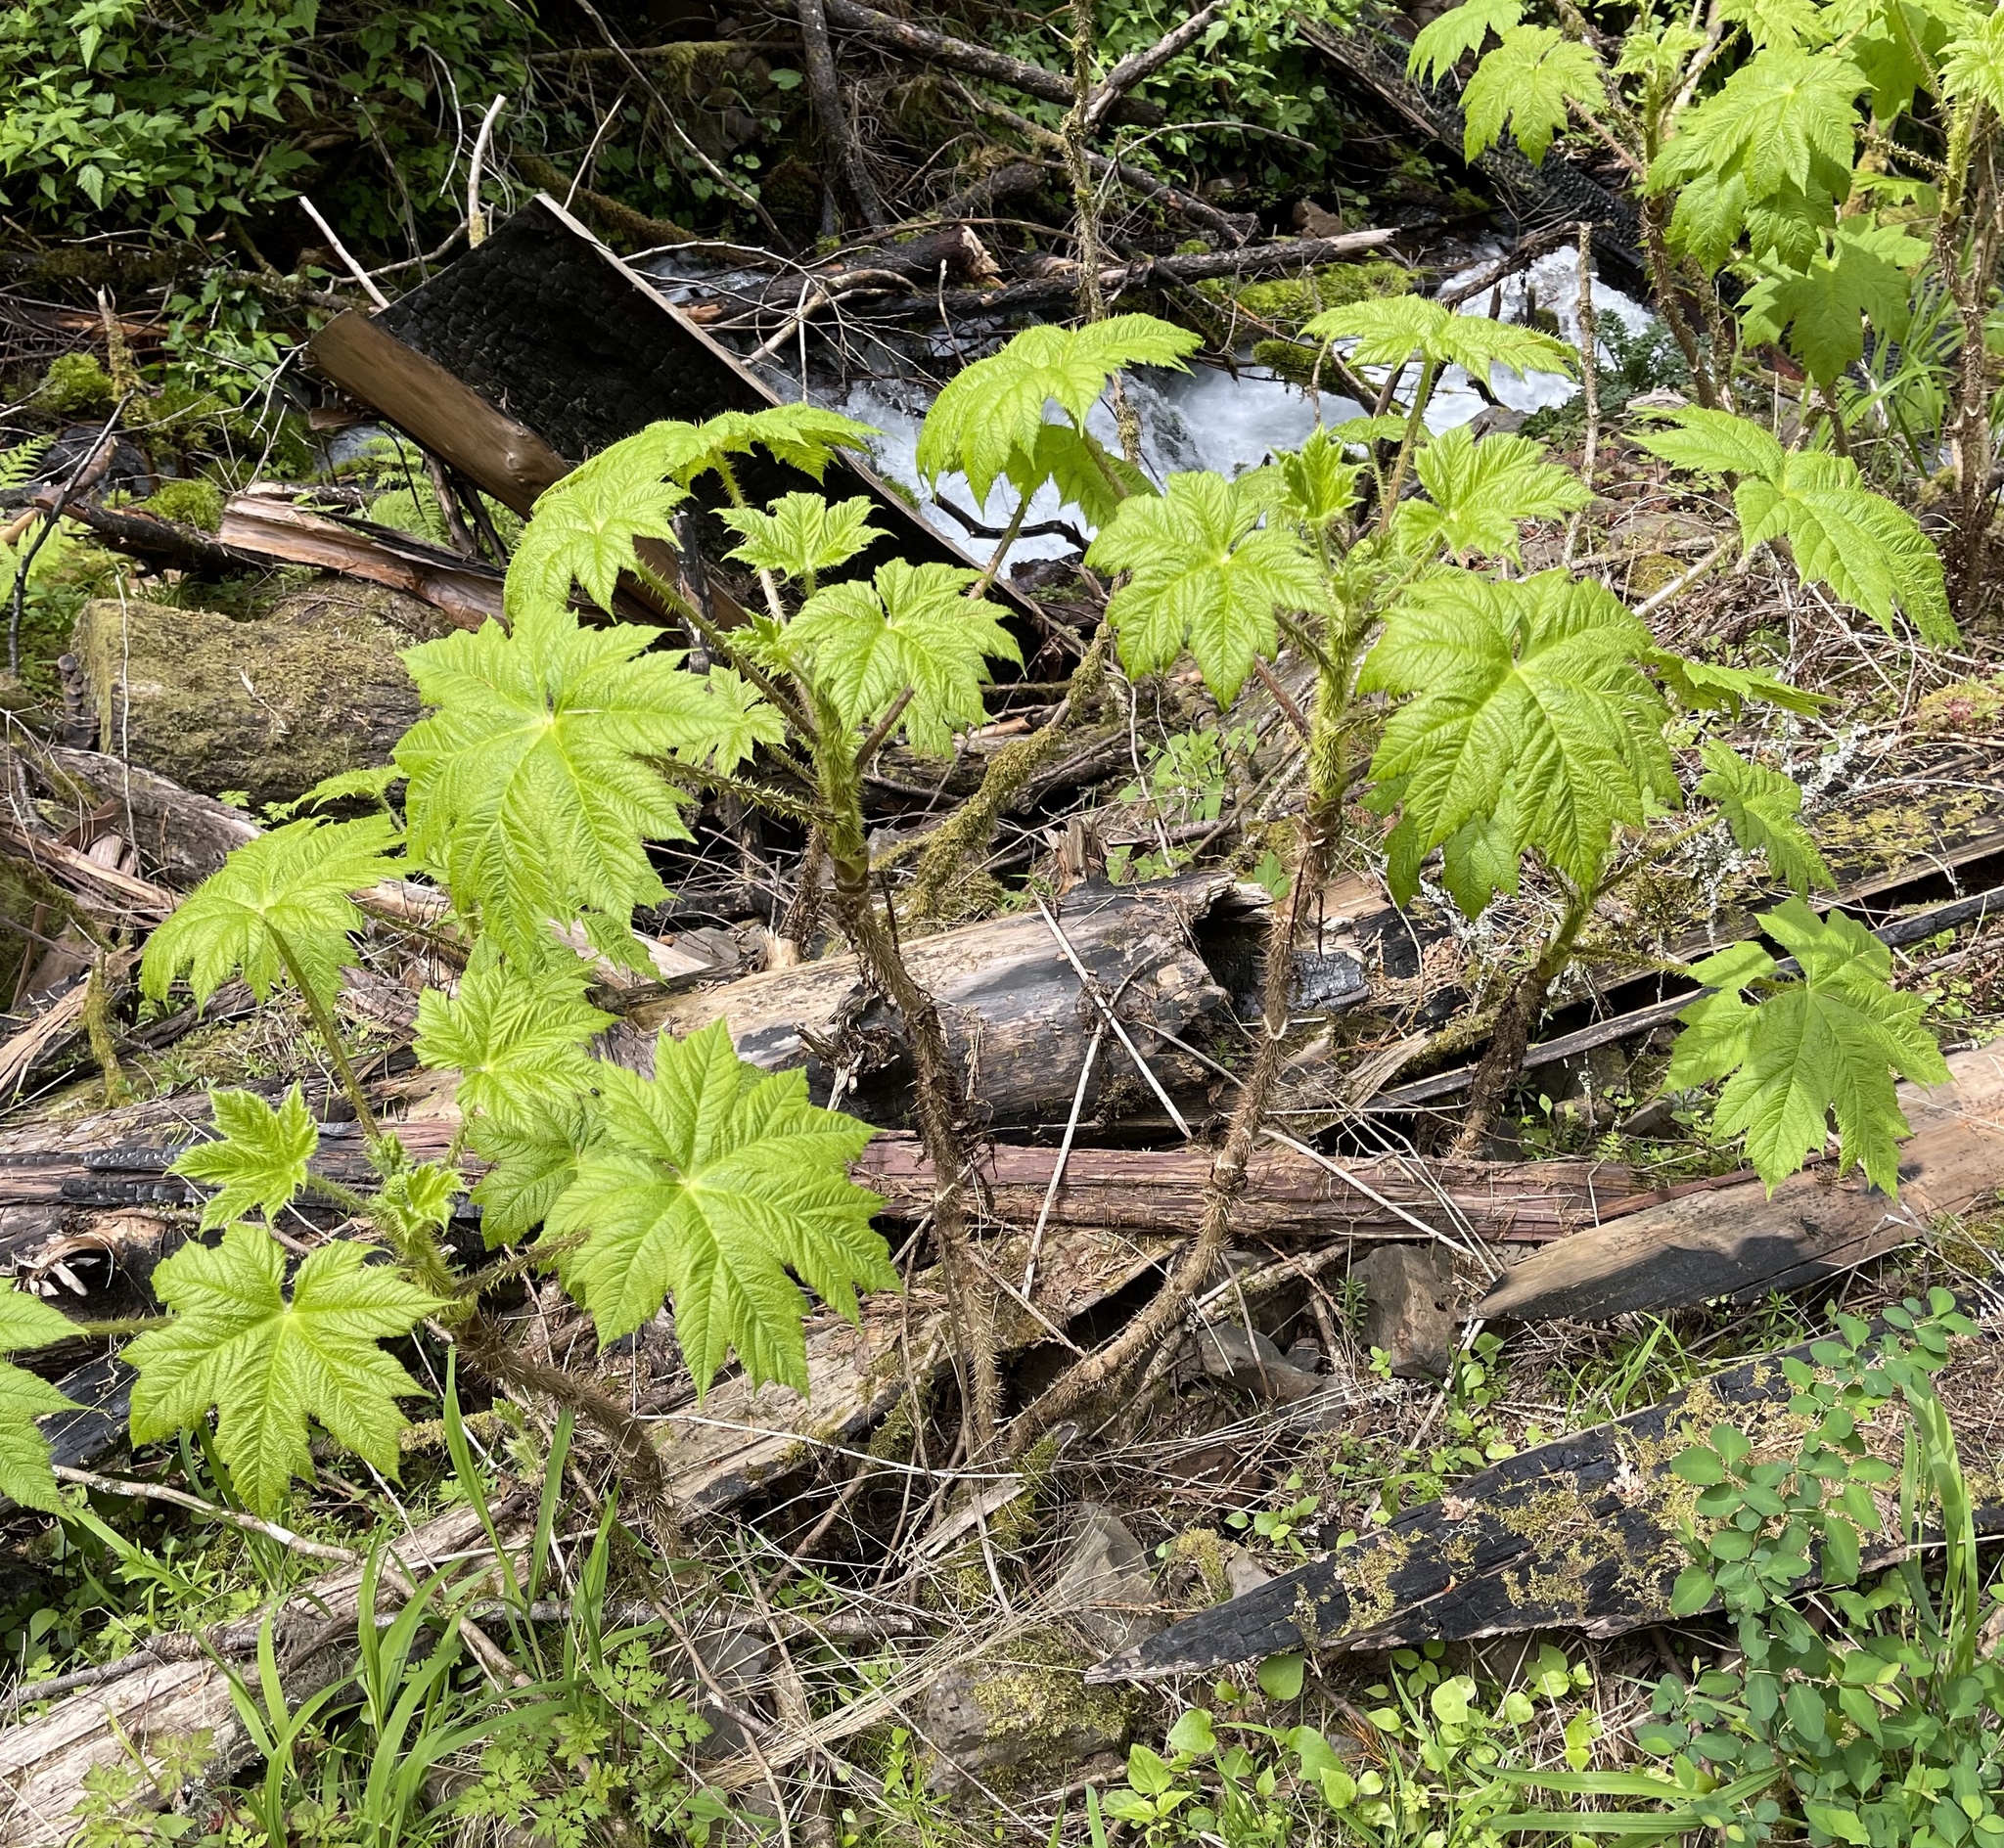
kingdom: Plantae
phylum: Tracheophyta
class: Magnoliopsida
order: Apiales
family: Araliaceae
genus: Oplopanax
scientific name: Oplopanax horridus
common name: Devil's walking-stick
